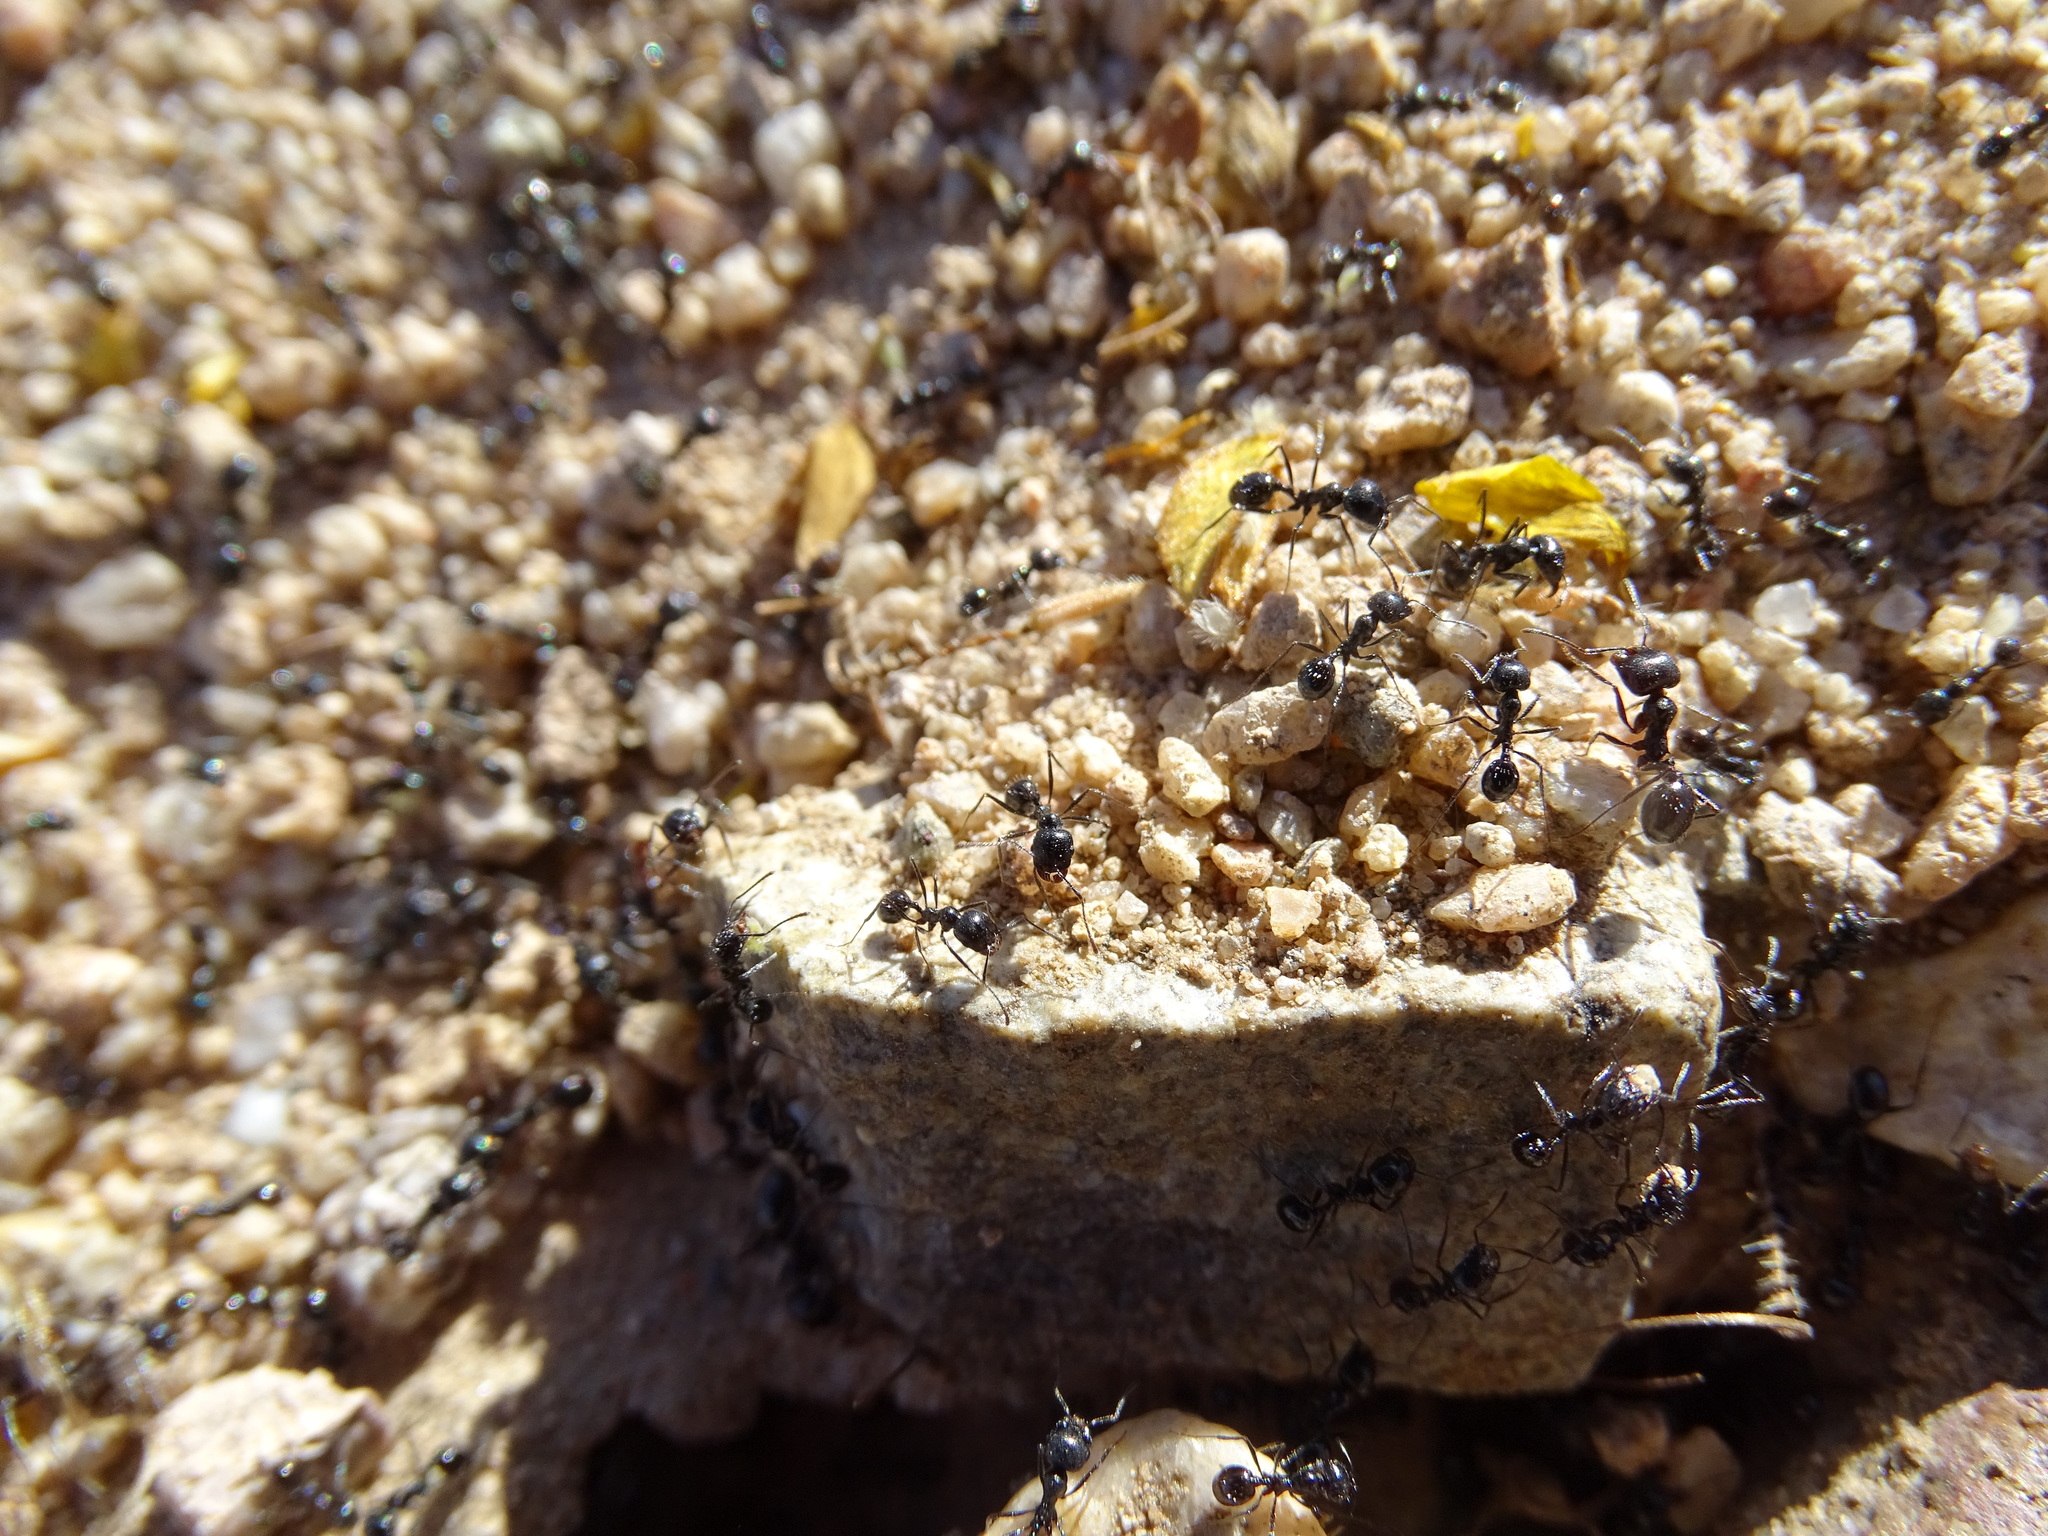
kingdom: Animalia
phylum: Arthropoda
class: Insecta
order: Hymenoptera
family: Formicidae
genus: Messor
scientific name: Messor pergandei
